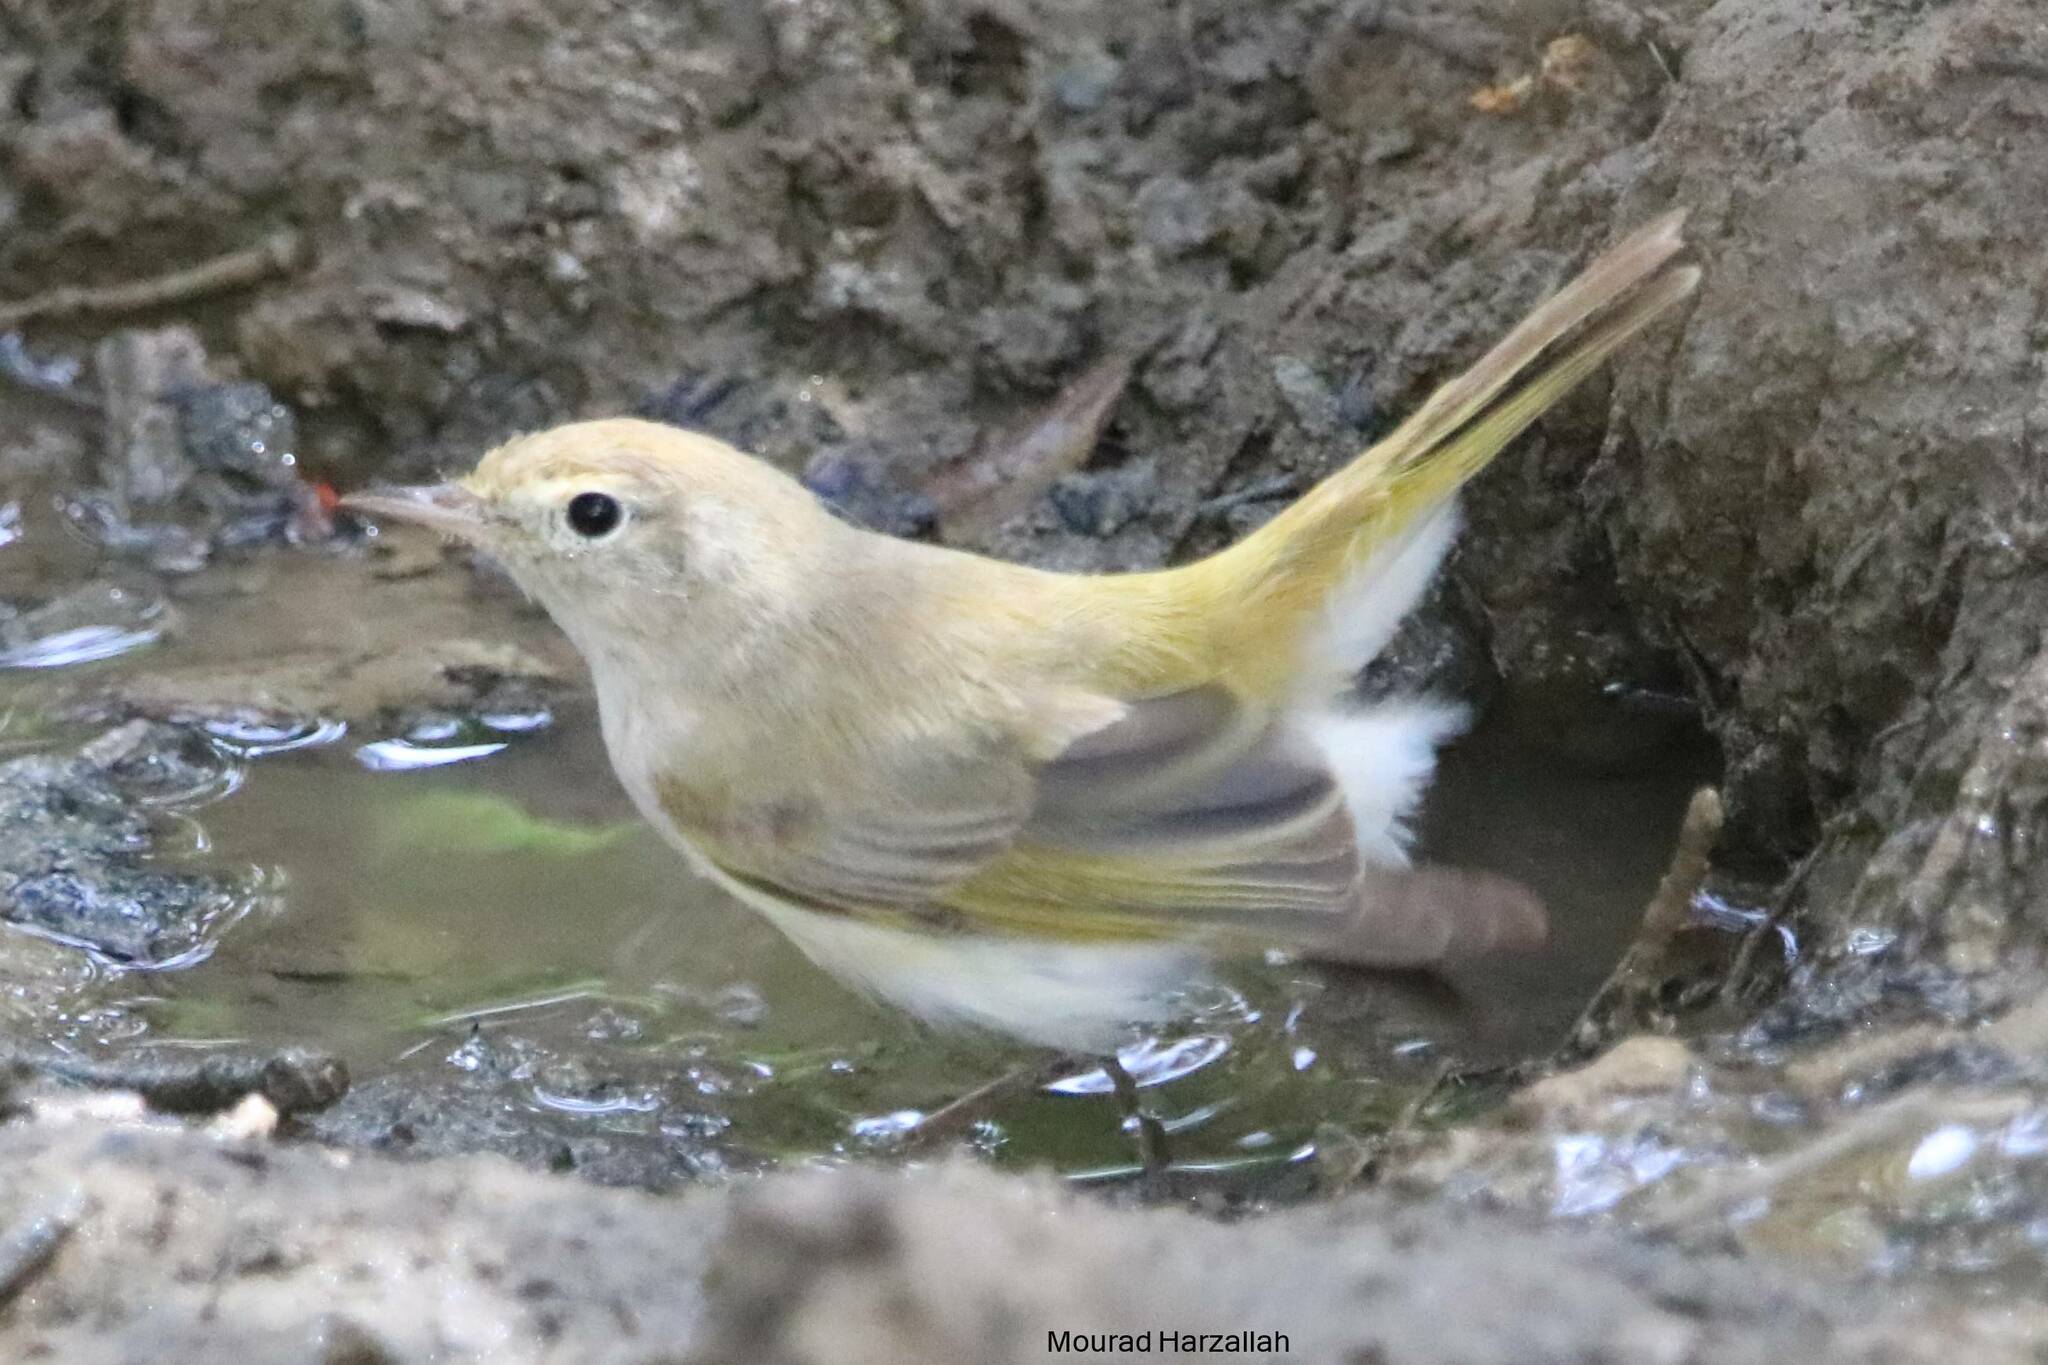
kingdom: Animalia
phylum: Chordata
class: Aves
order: Passeriformes
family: Phylloscopidae
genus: Phylloscopus
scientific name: Phylloscopus bonelli
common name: Western bonelli's warbler
